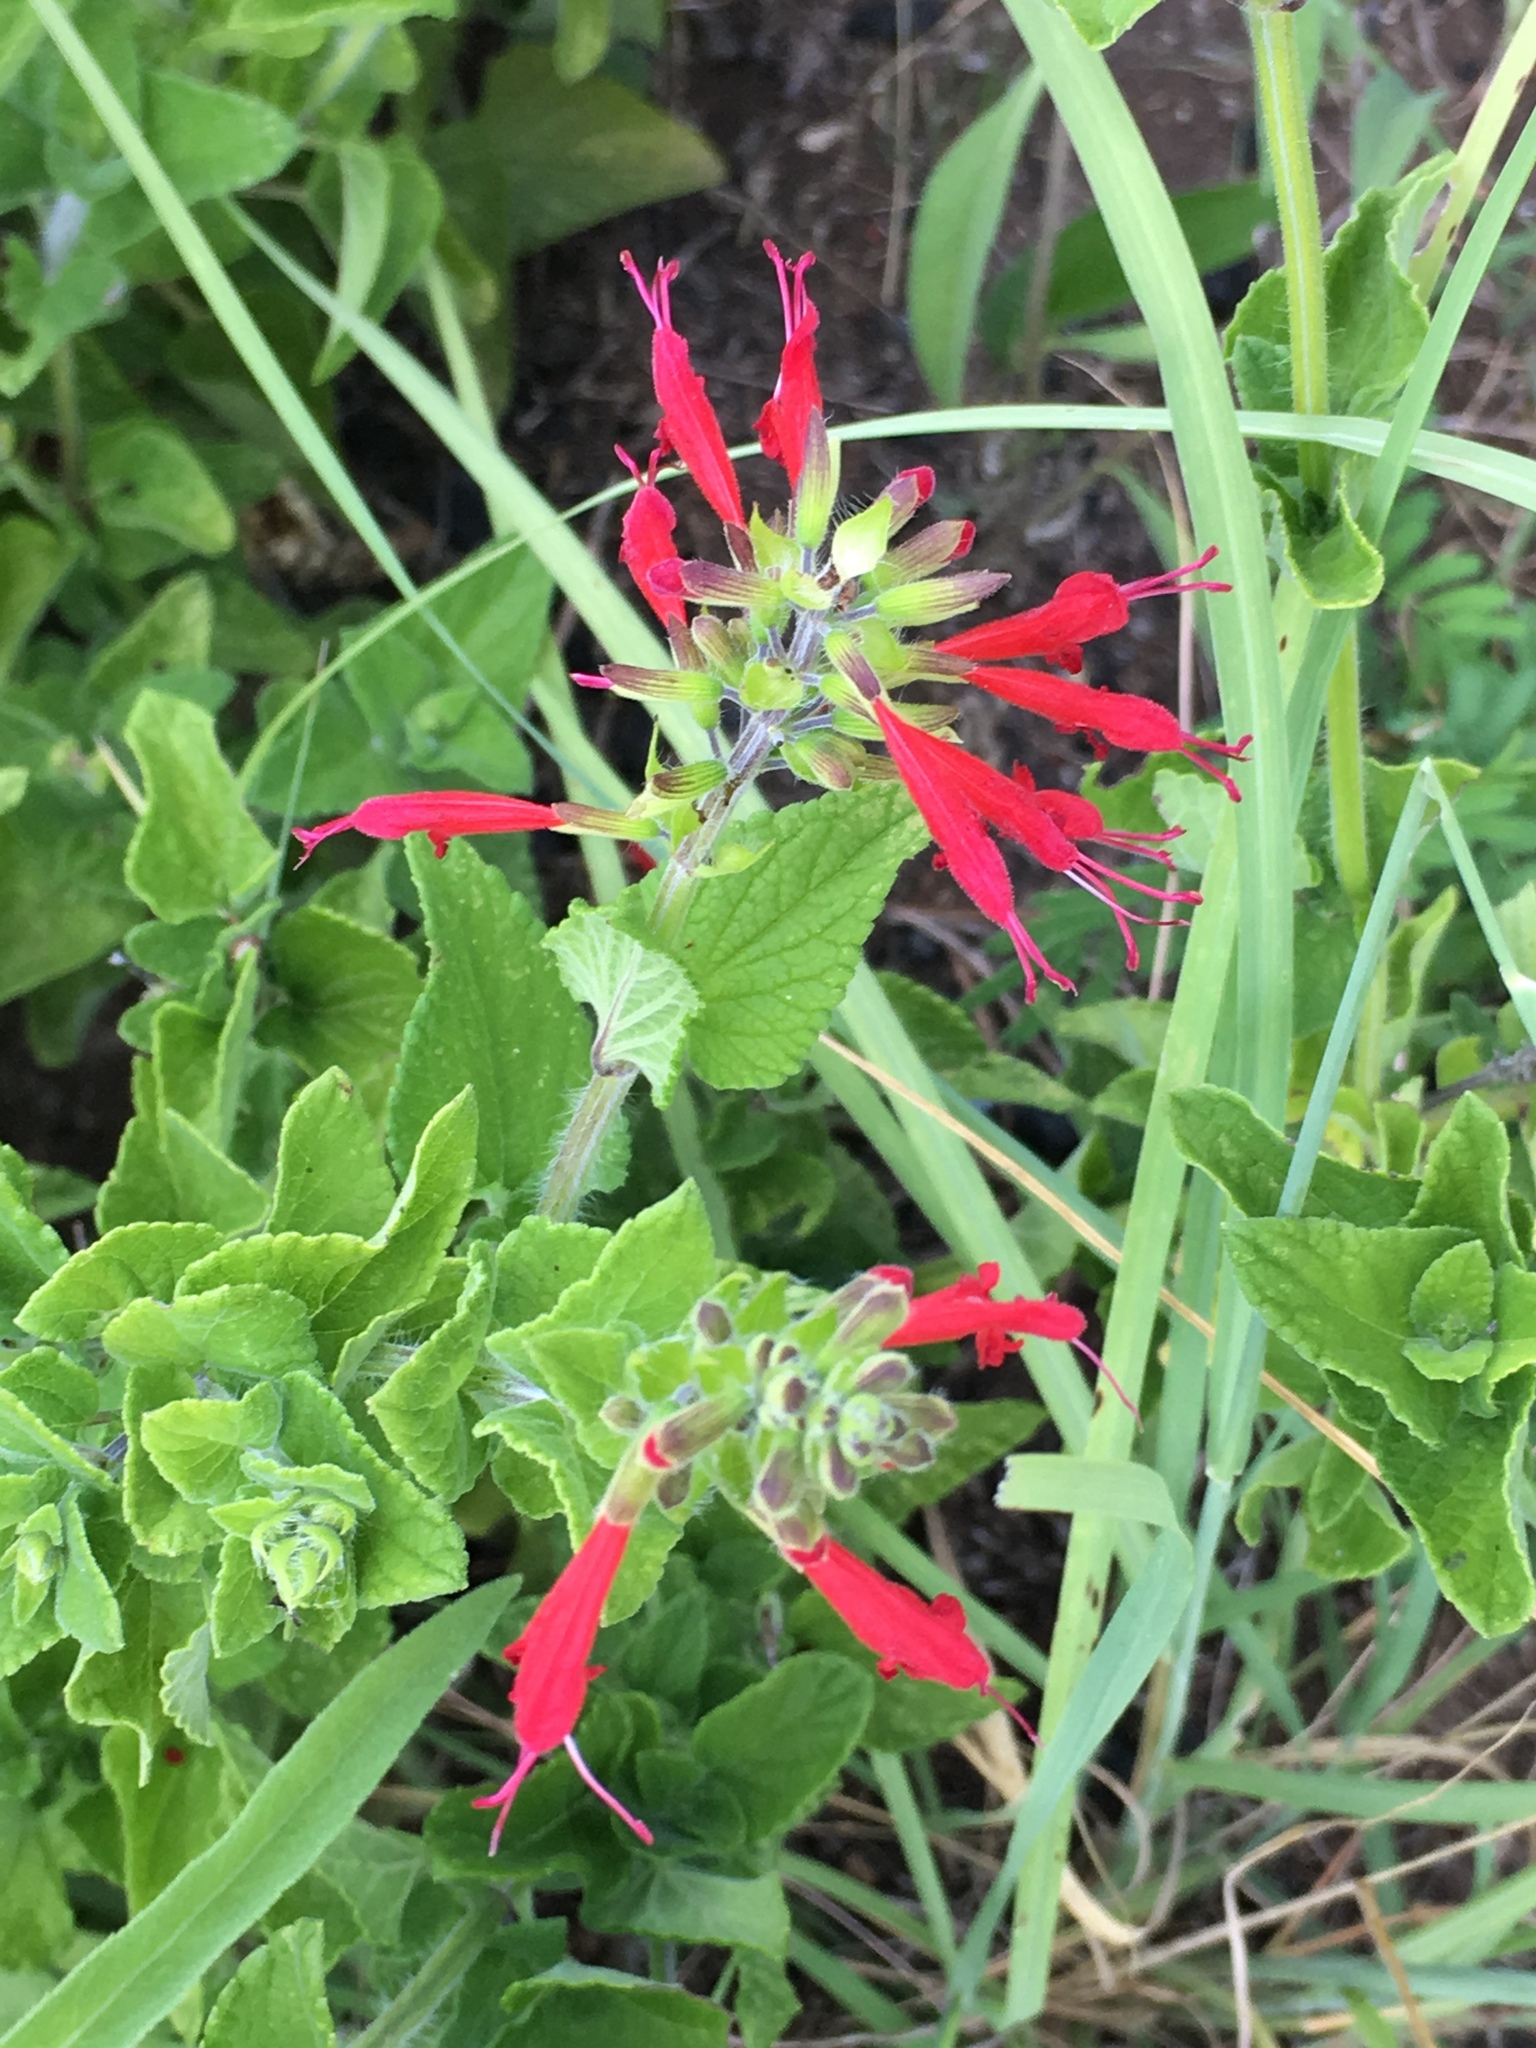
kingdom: Plantae
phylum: Tracheophyta
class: Magnoliopsida
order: Lamiales
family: Lamiaceae
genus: Salvia
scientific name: Salvia coccinea
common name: Blood sage
